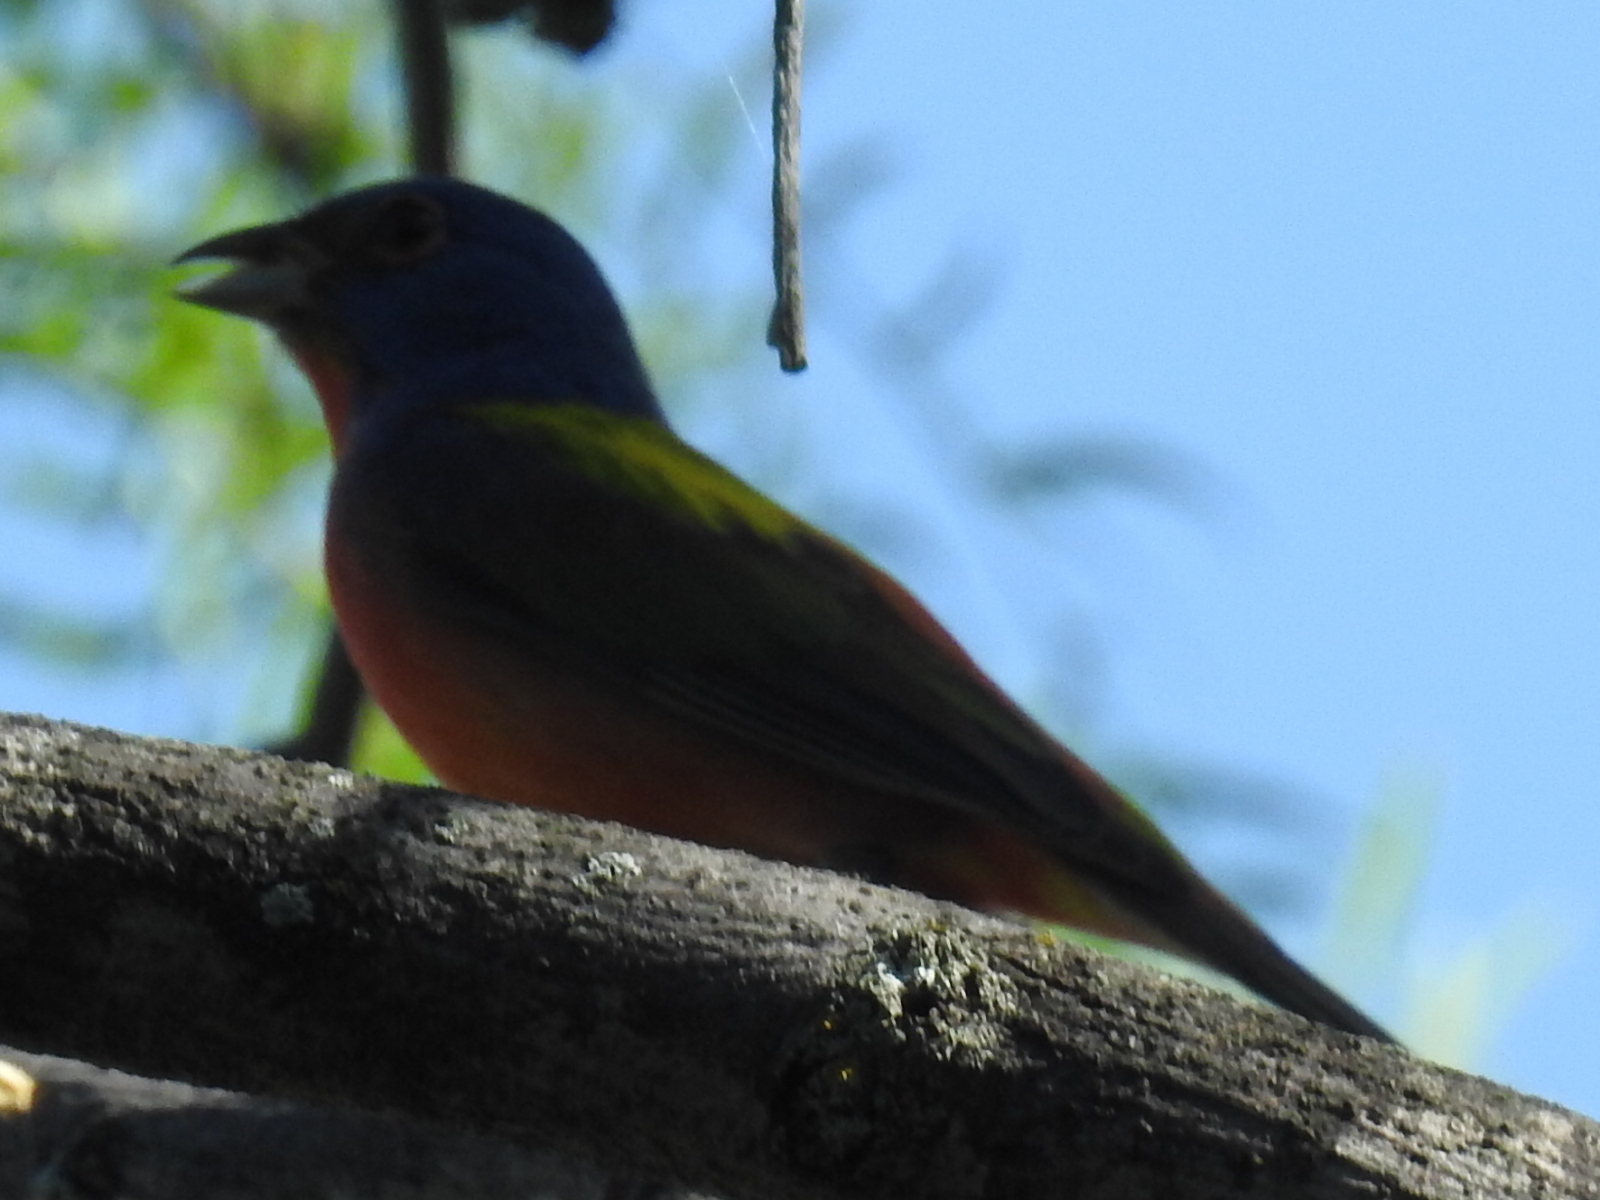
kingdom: Animalia
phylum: Chordata
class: Aves
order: Passeriformes
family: Cardinalidae
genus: Passerina
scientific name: Passerina ciris
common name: Painted bunting
